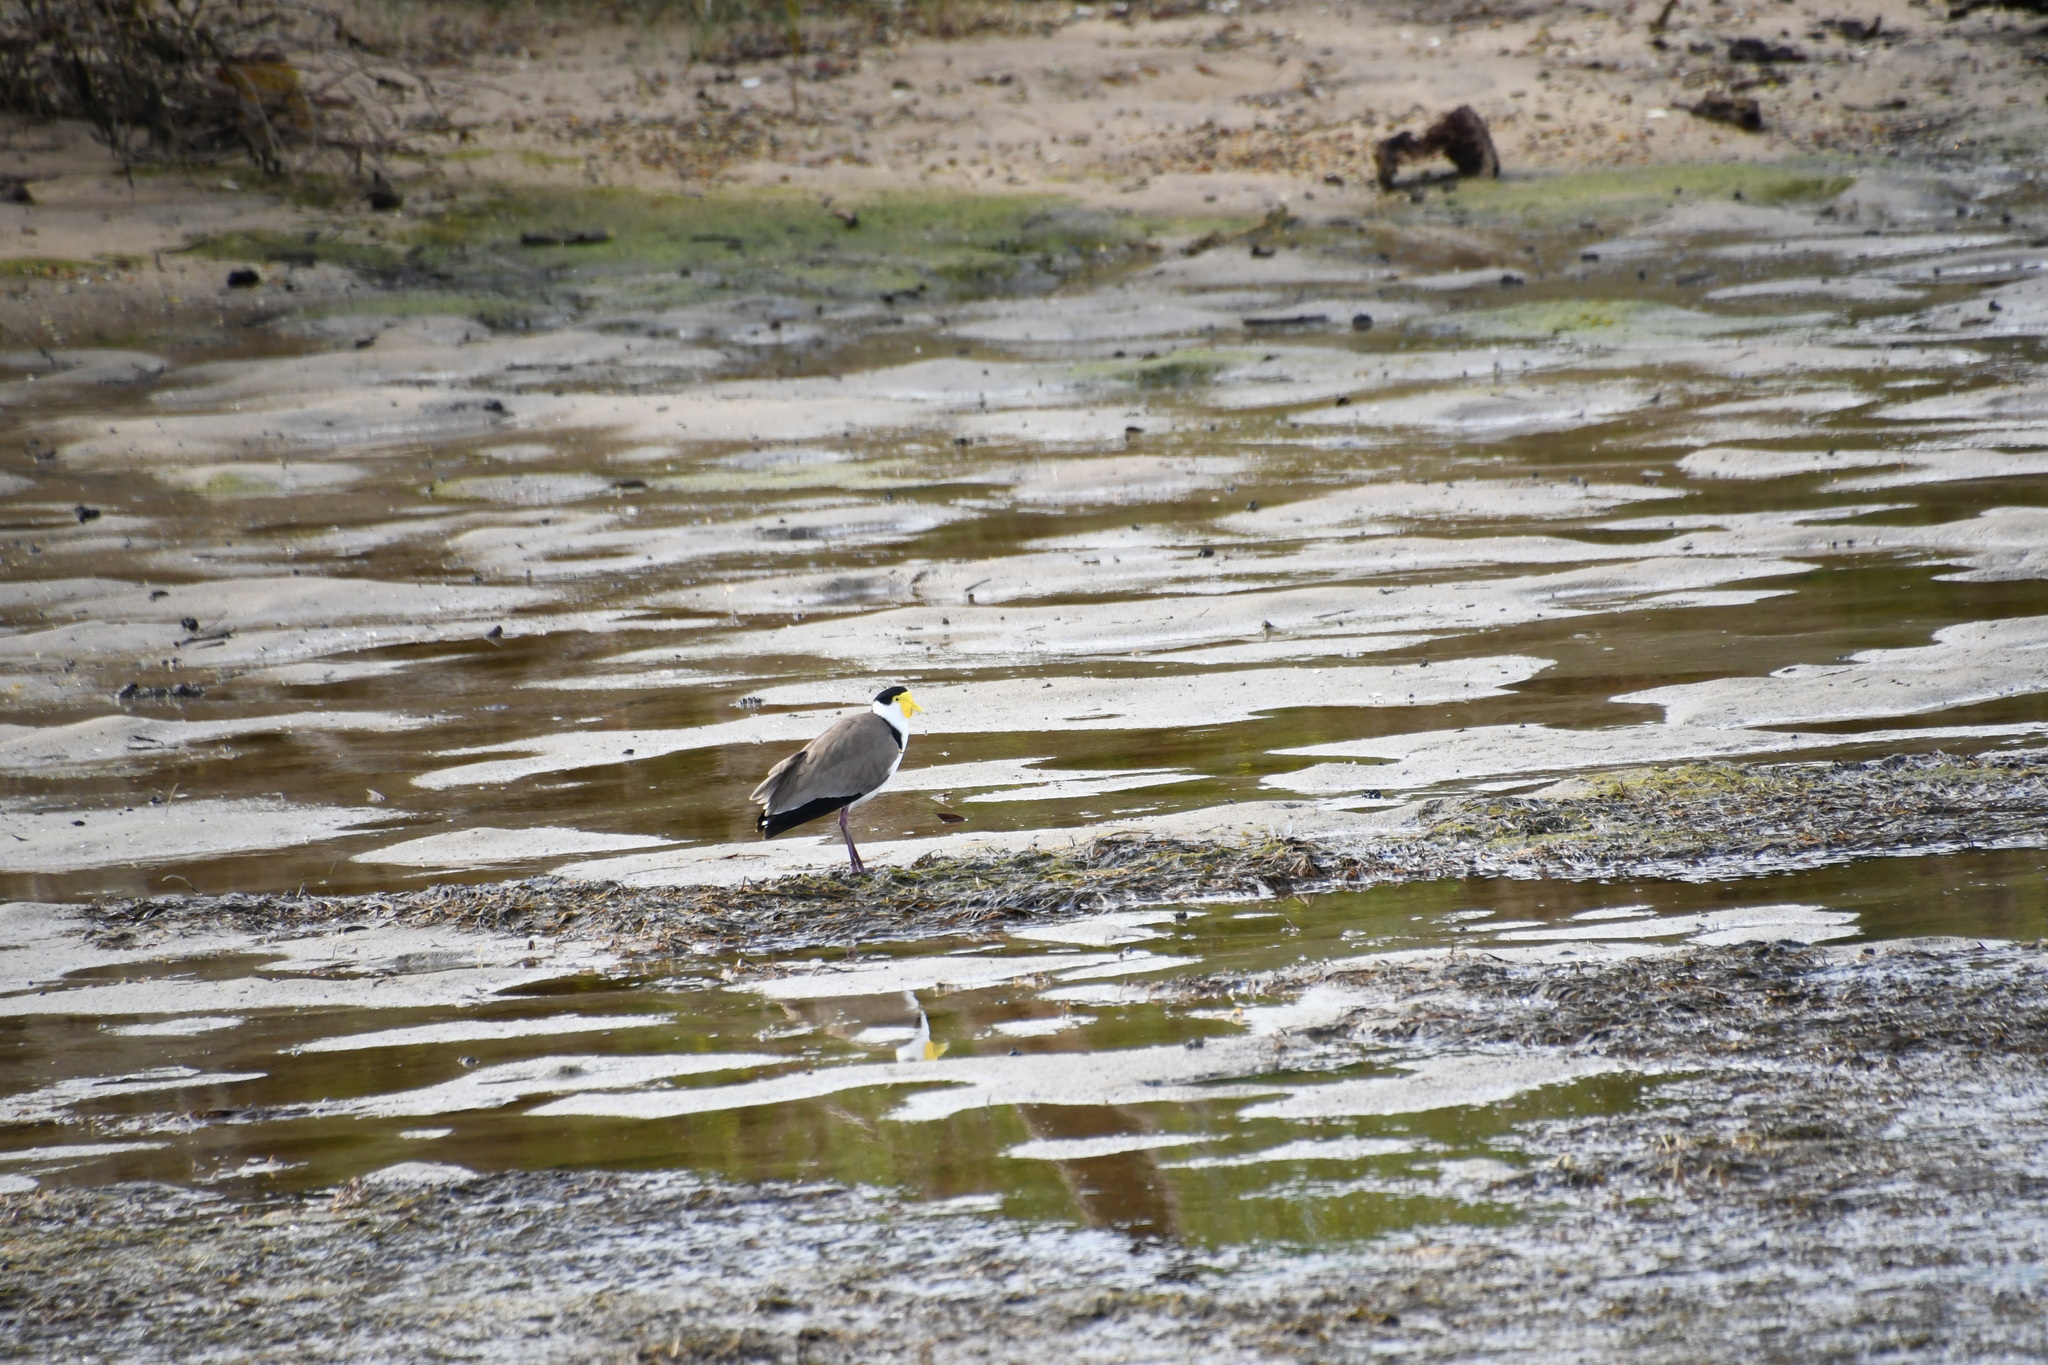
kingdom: Animalia
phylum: Chordata
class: Aves
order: Charadriiformes
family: Charadriidae
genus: Vanellus
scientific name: Vanellus miles
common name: Masked lapwing
